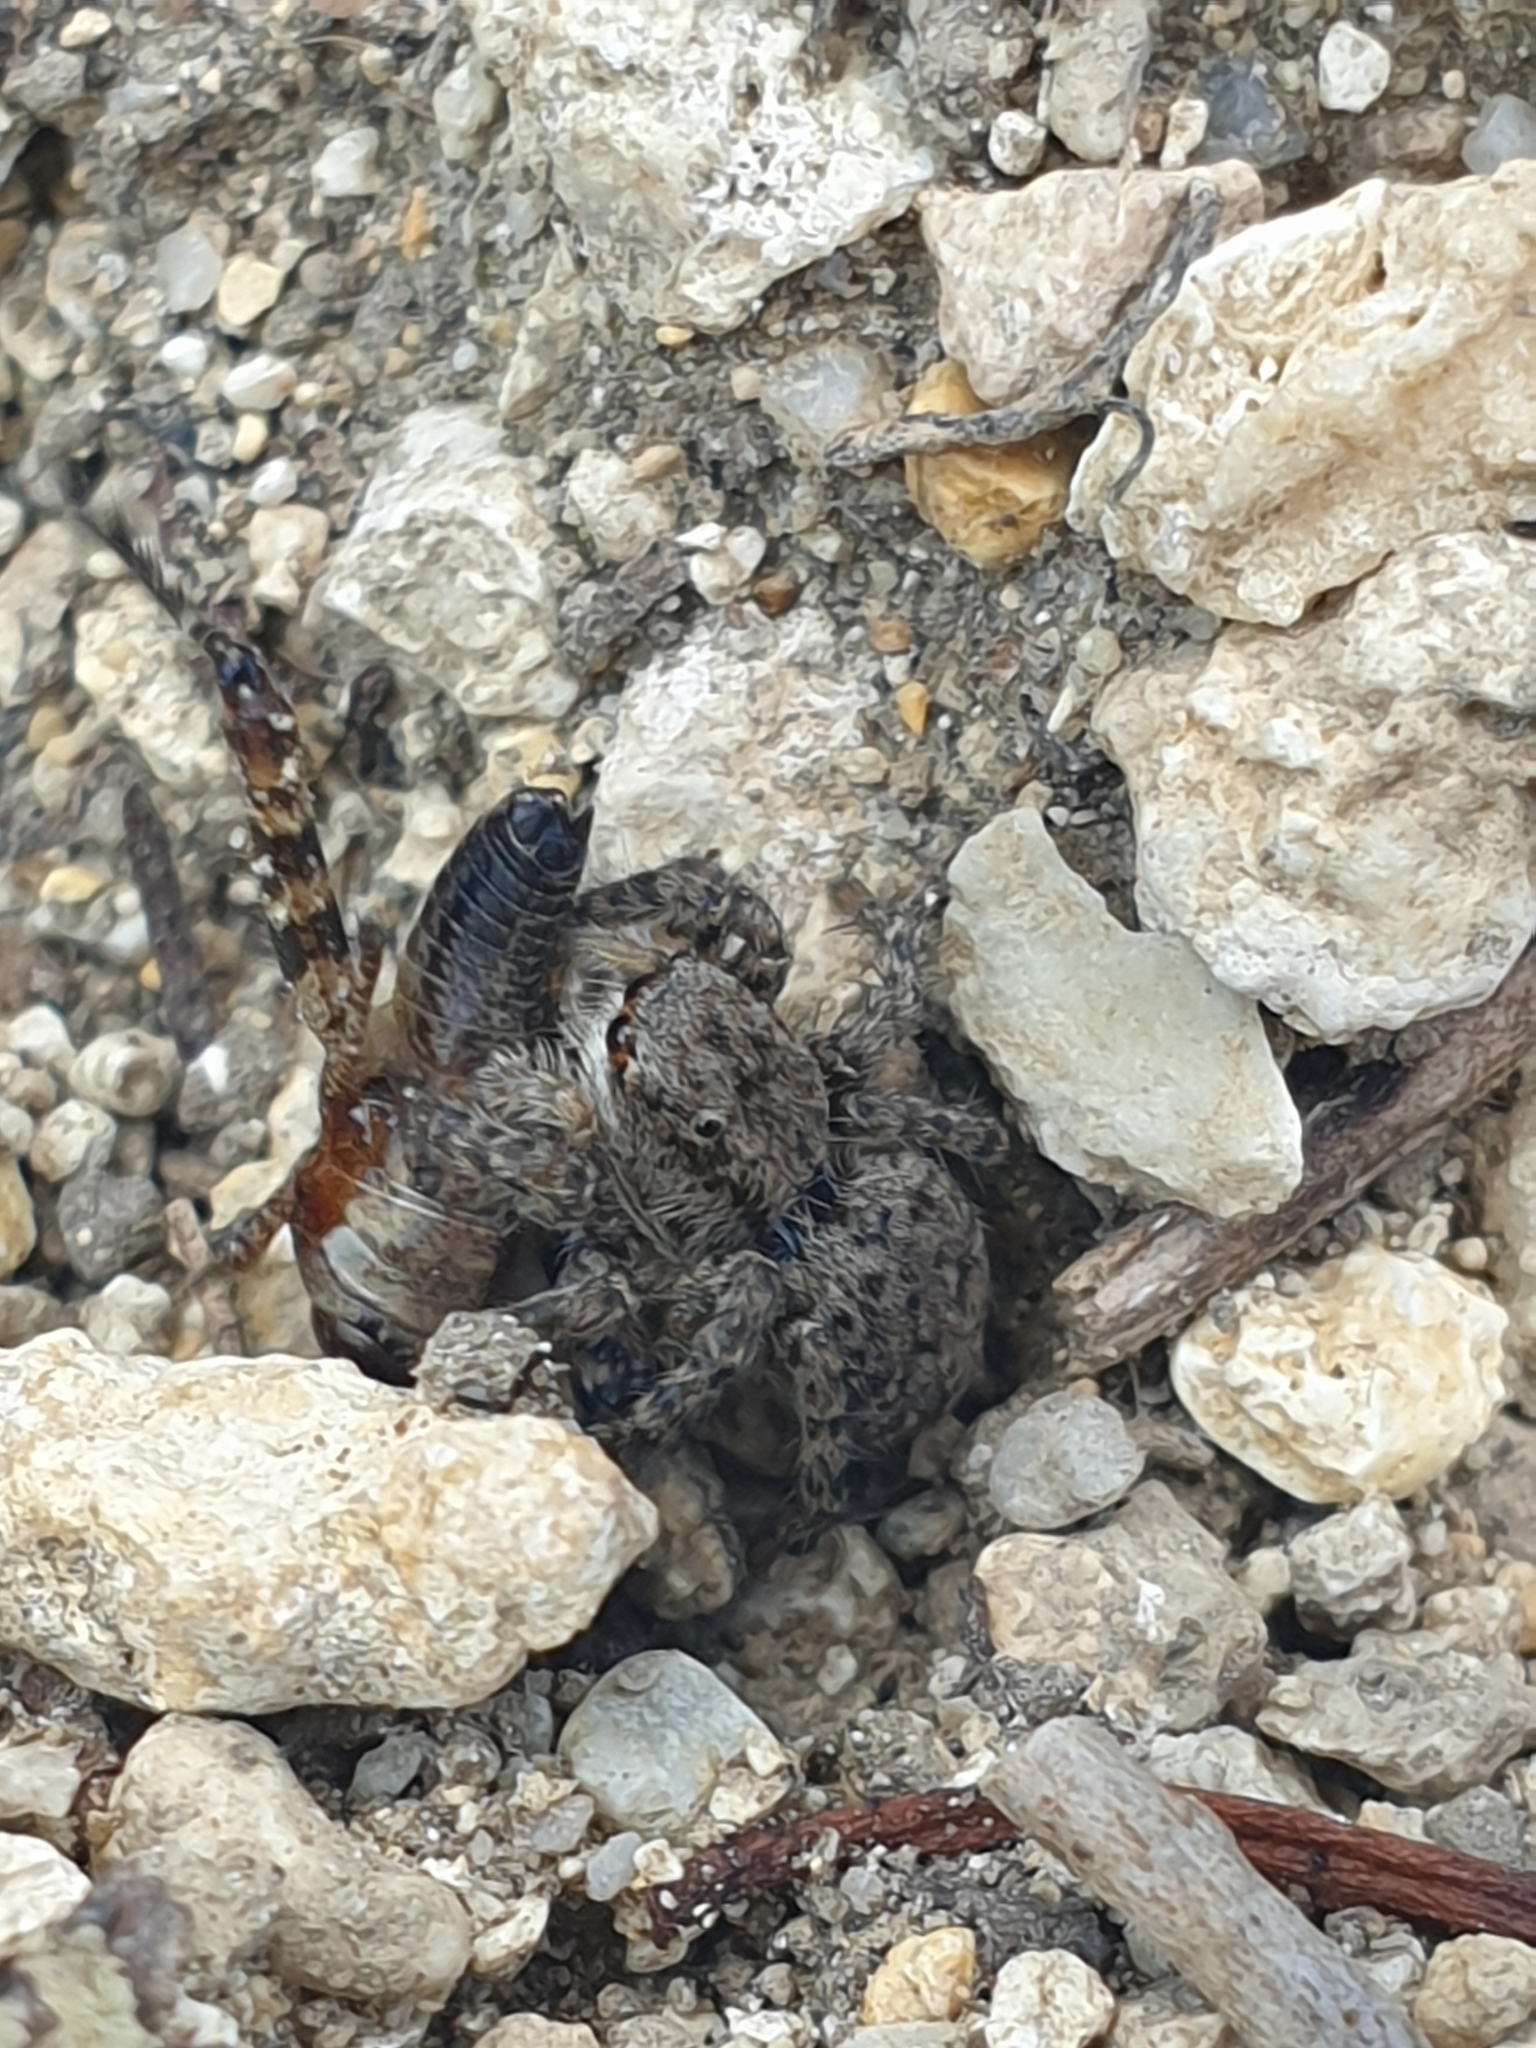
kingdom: Animalia
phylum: Arthropoda
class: Arachnida
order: Araneae
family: Salticidae
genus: Asianellus
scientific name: Asianellus festivus
